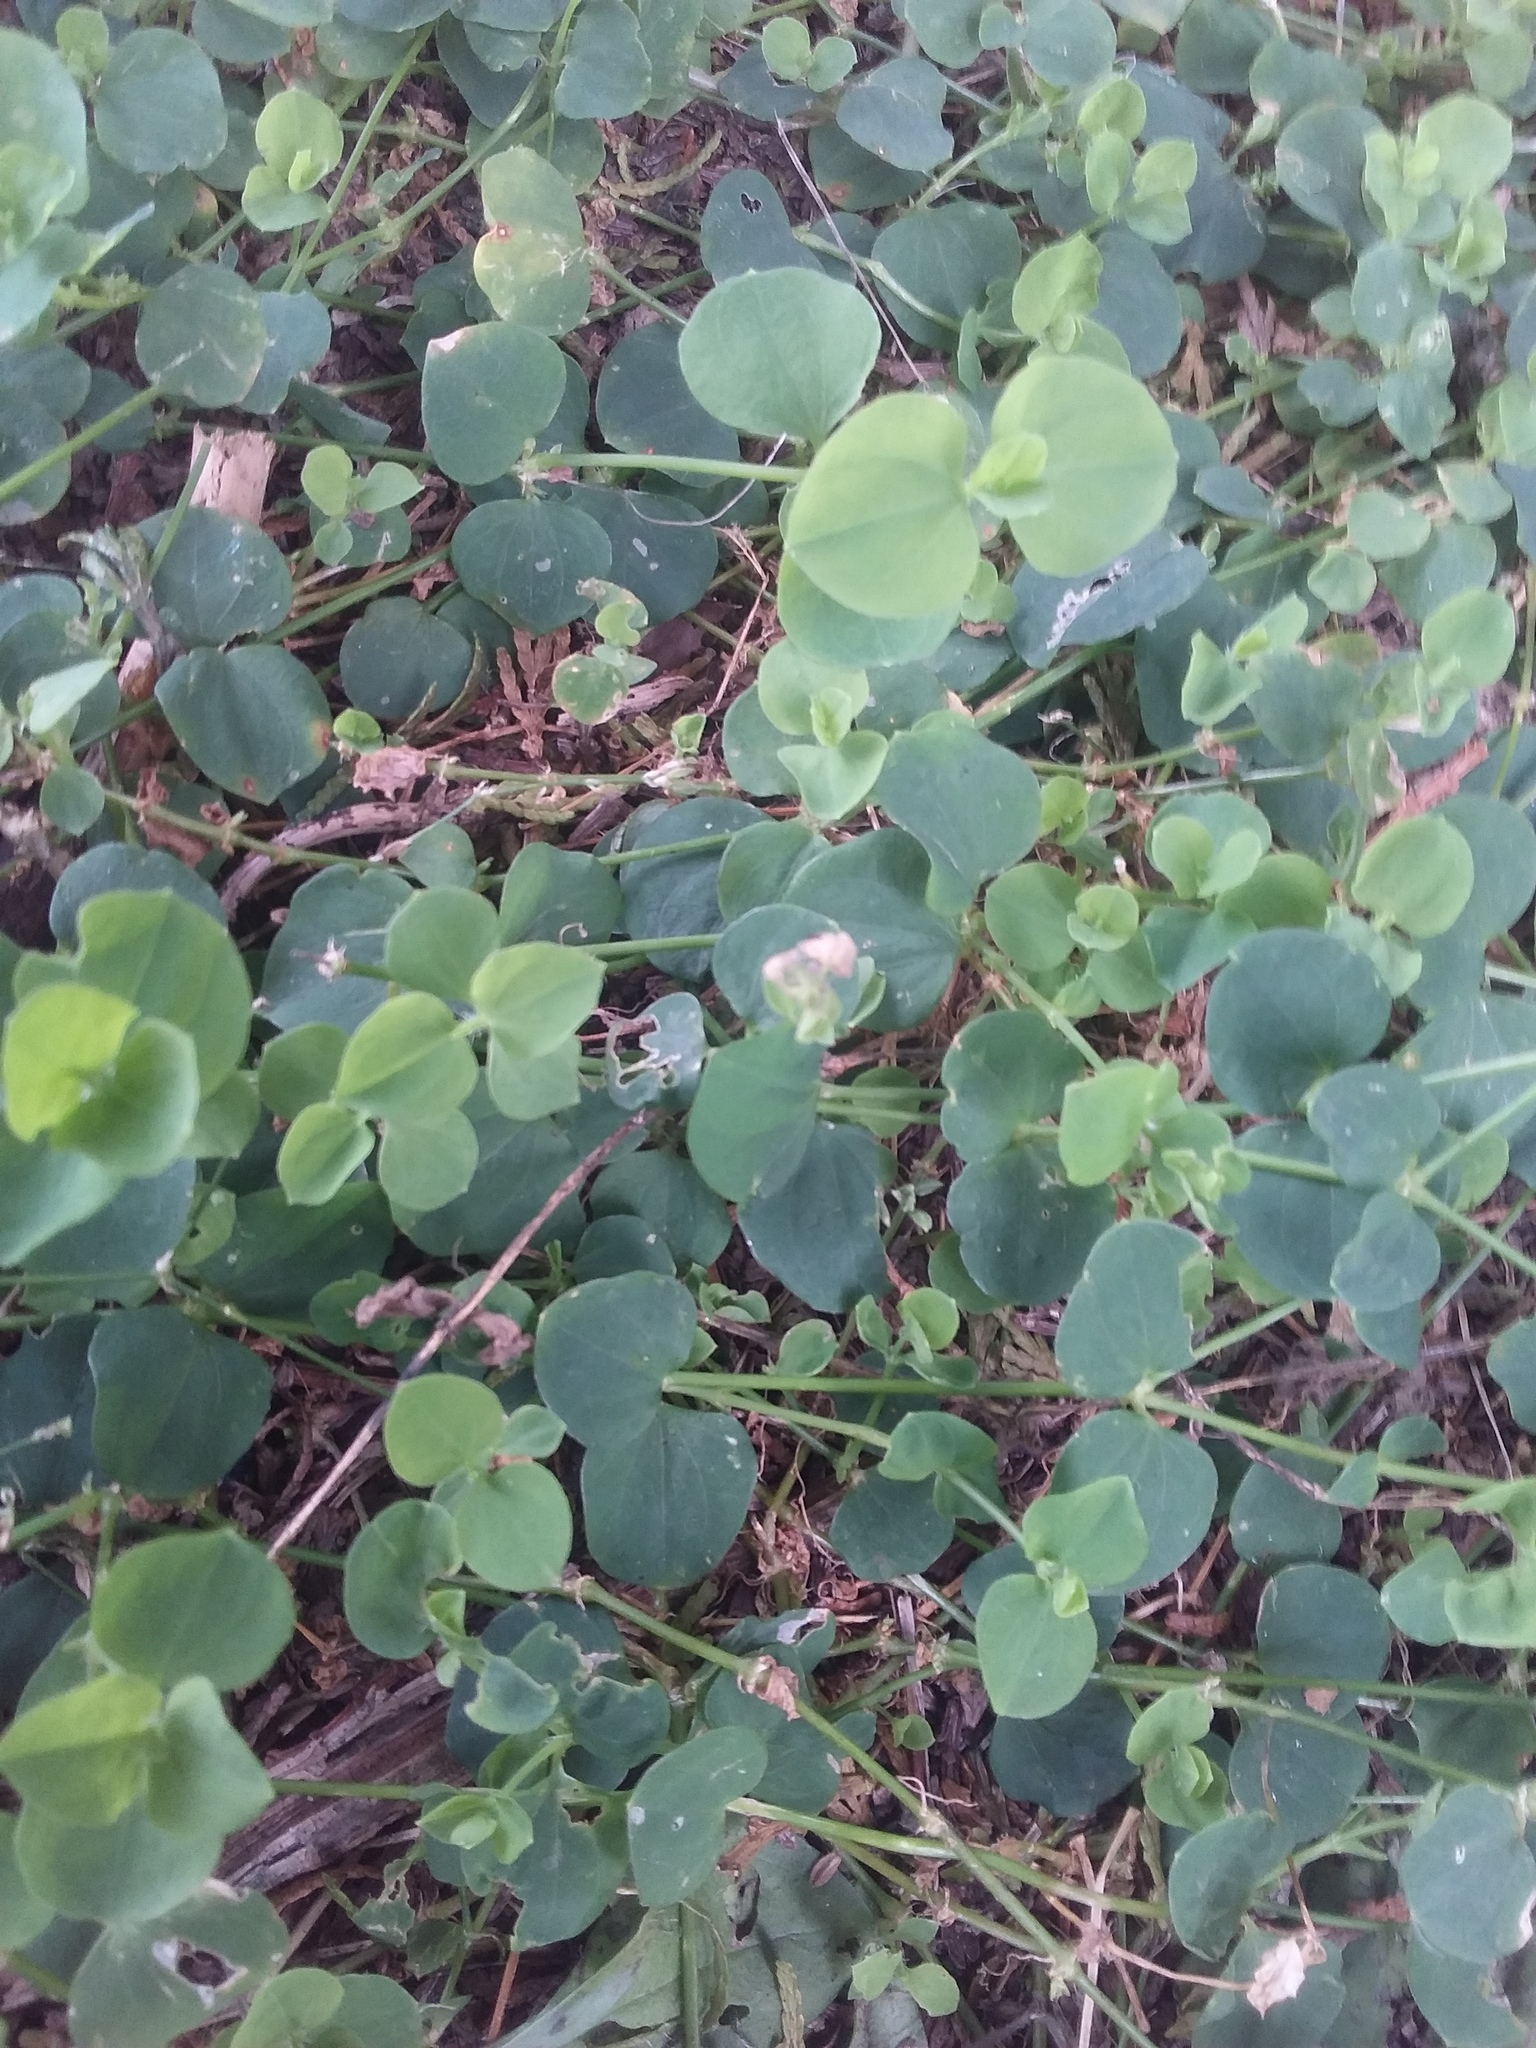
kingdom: Plantae
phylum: Tracheophyta
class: Magnoliopsida
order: Caryophyllales
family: Caryophyllaceae
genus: Drymaria
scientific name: Drymaria cordata
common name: Whitesnow
